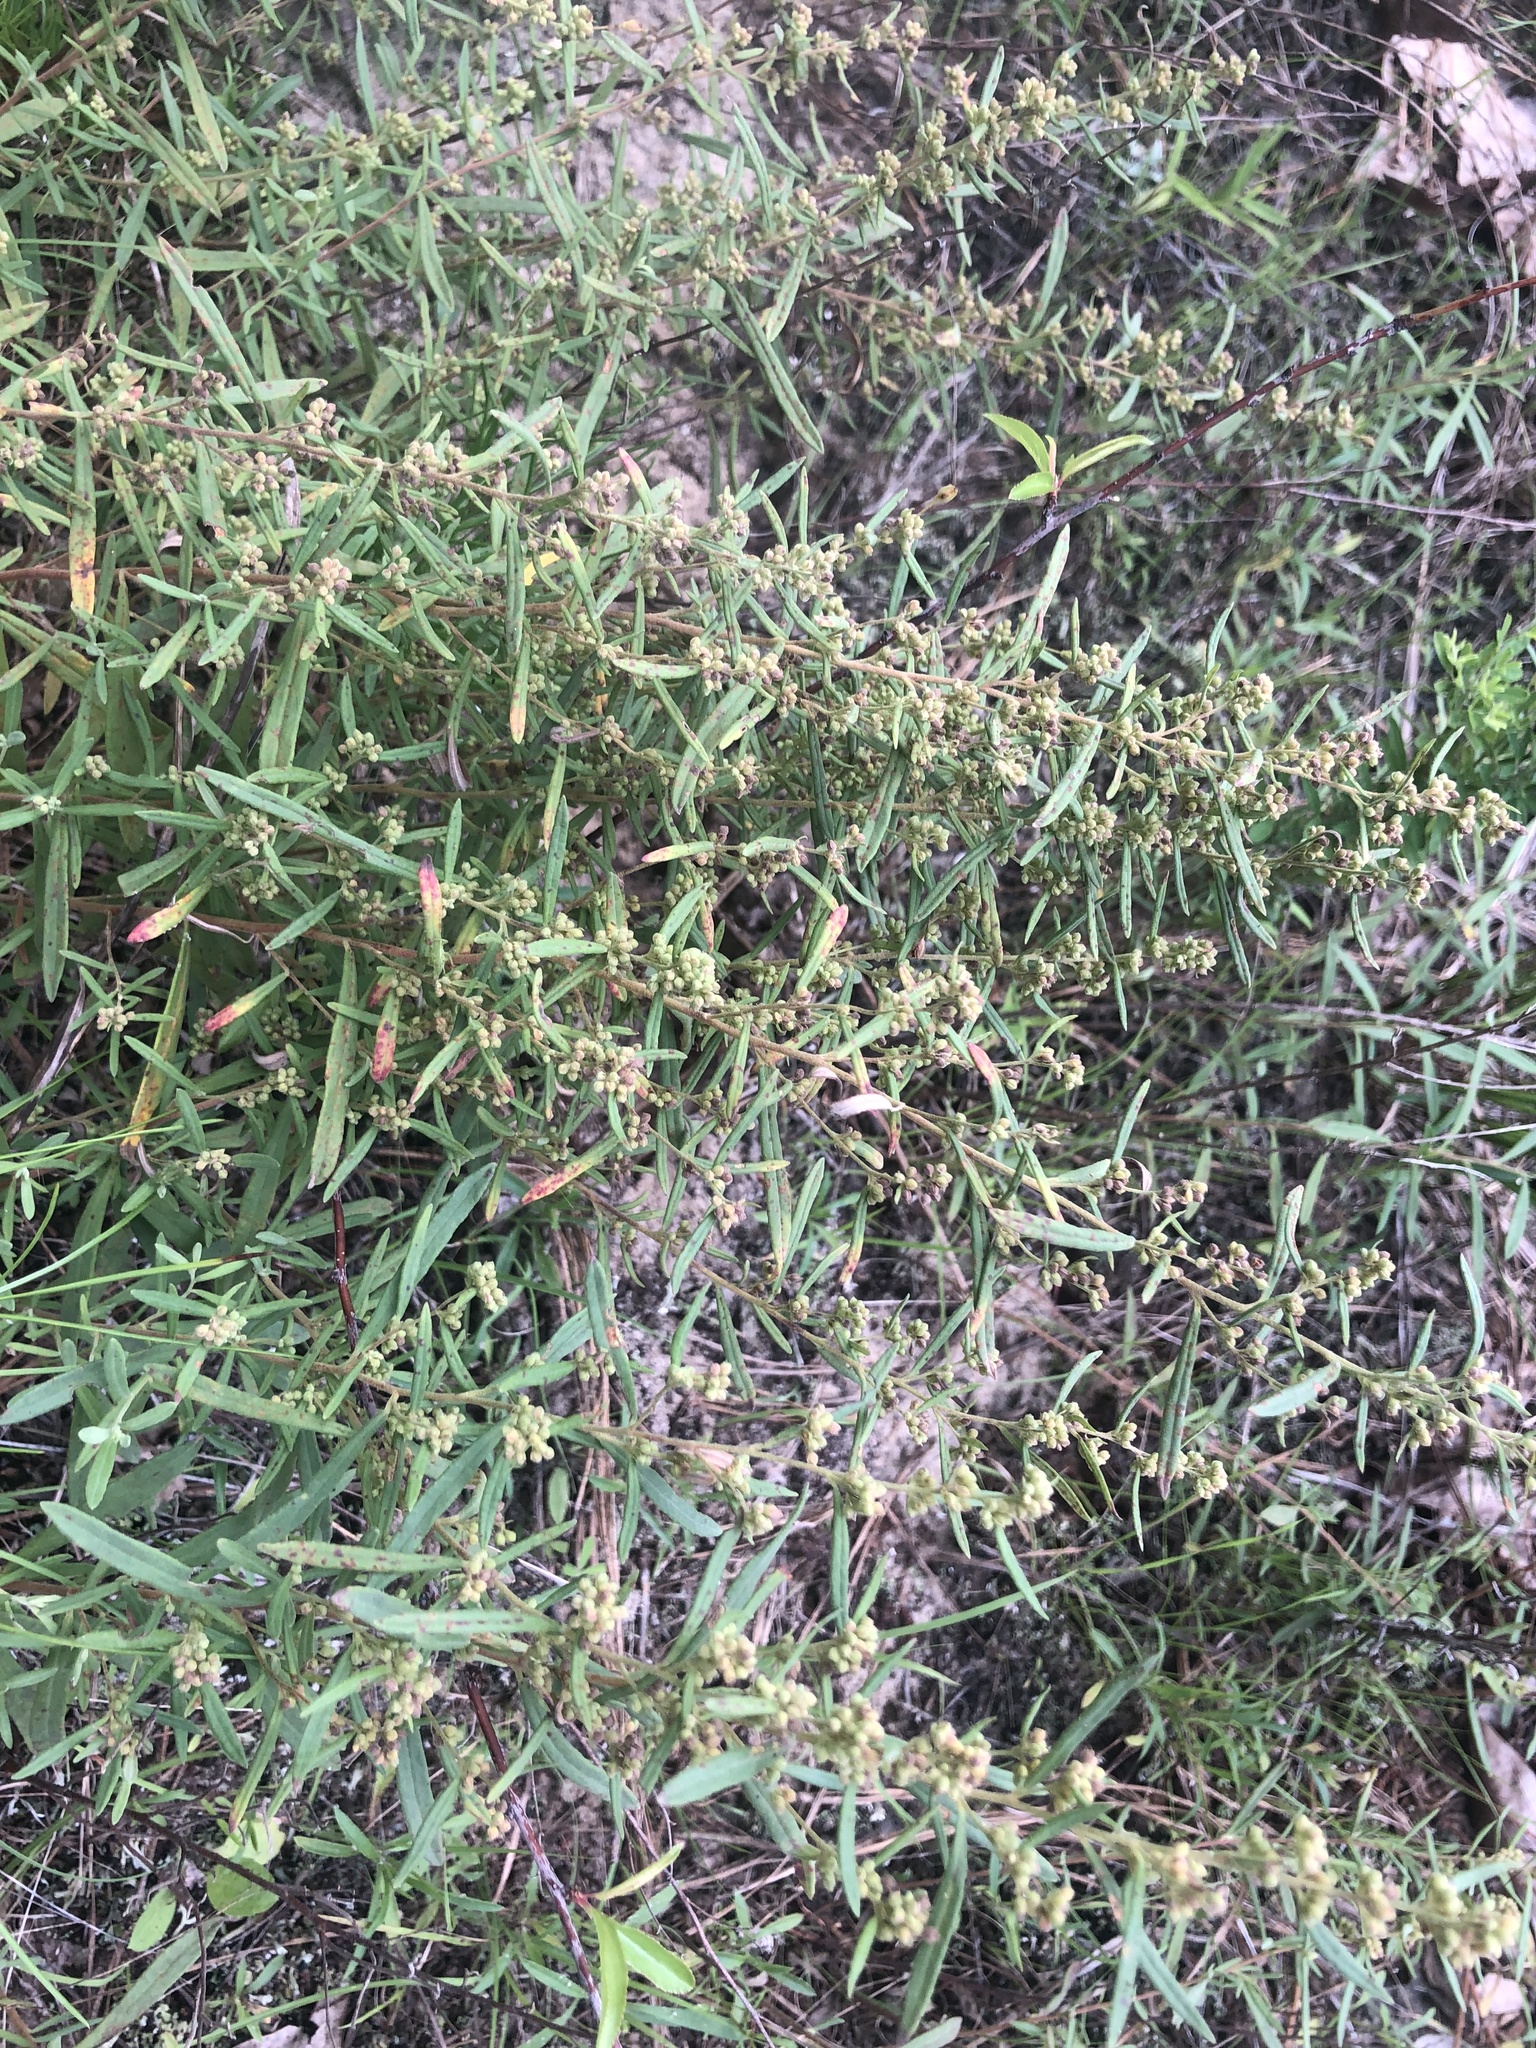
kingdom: Plantae
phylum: Tracheophyta
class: Magnoliopsida
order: Malvales
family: Cistaceae
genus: Crocanthemum
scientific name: Crocanthemum rosmarinifolium
